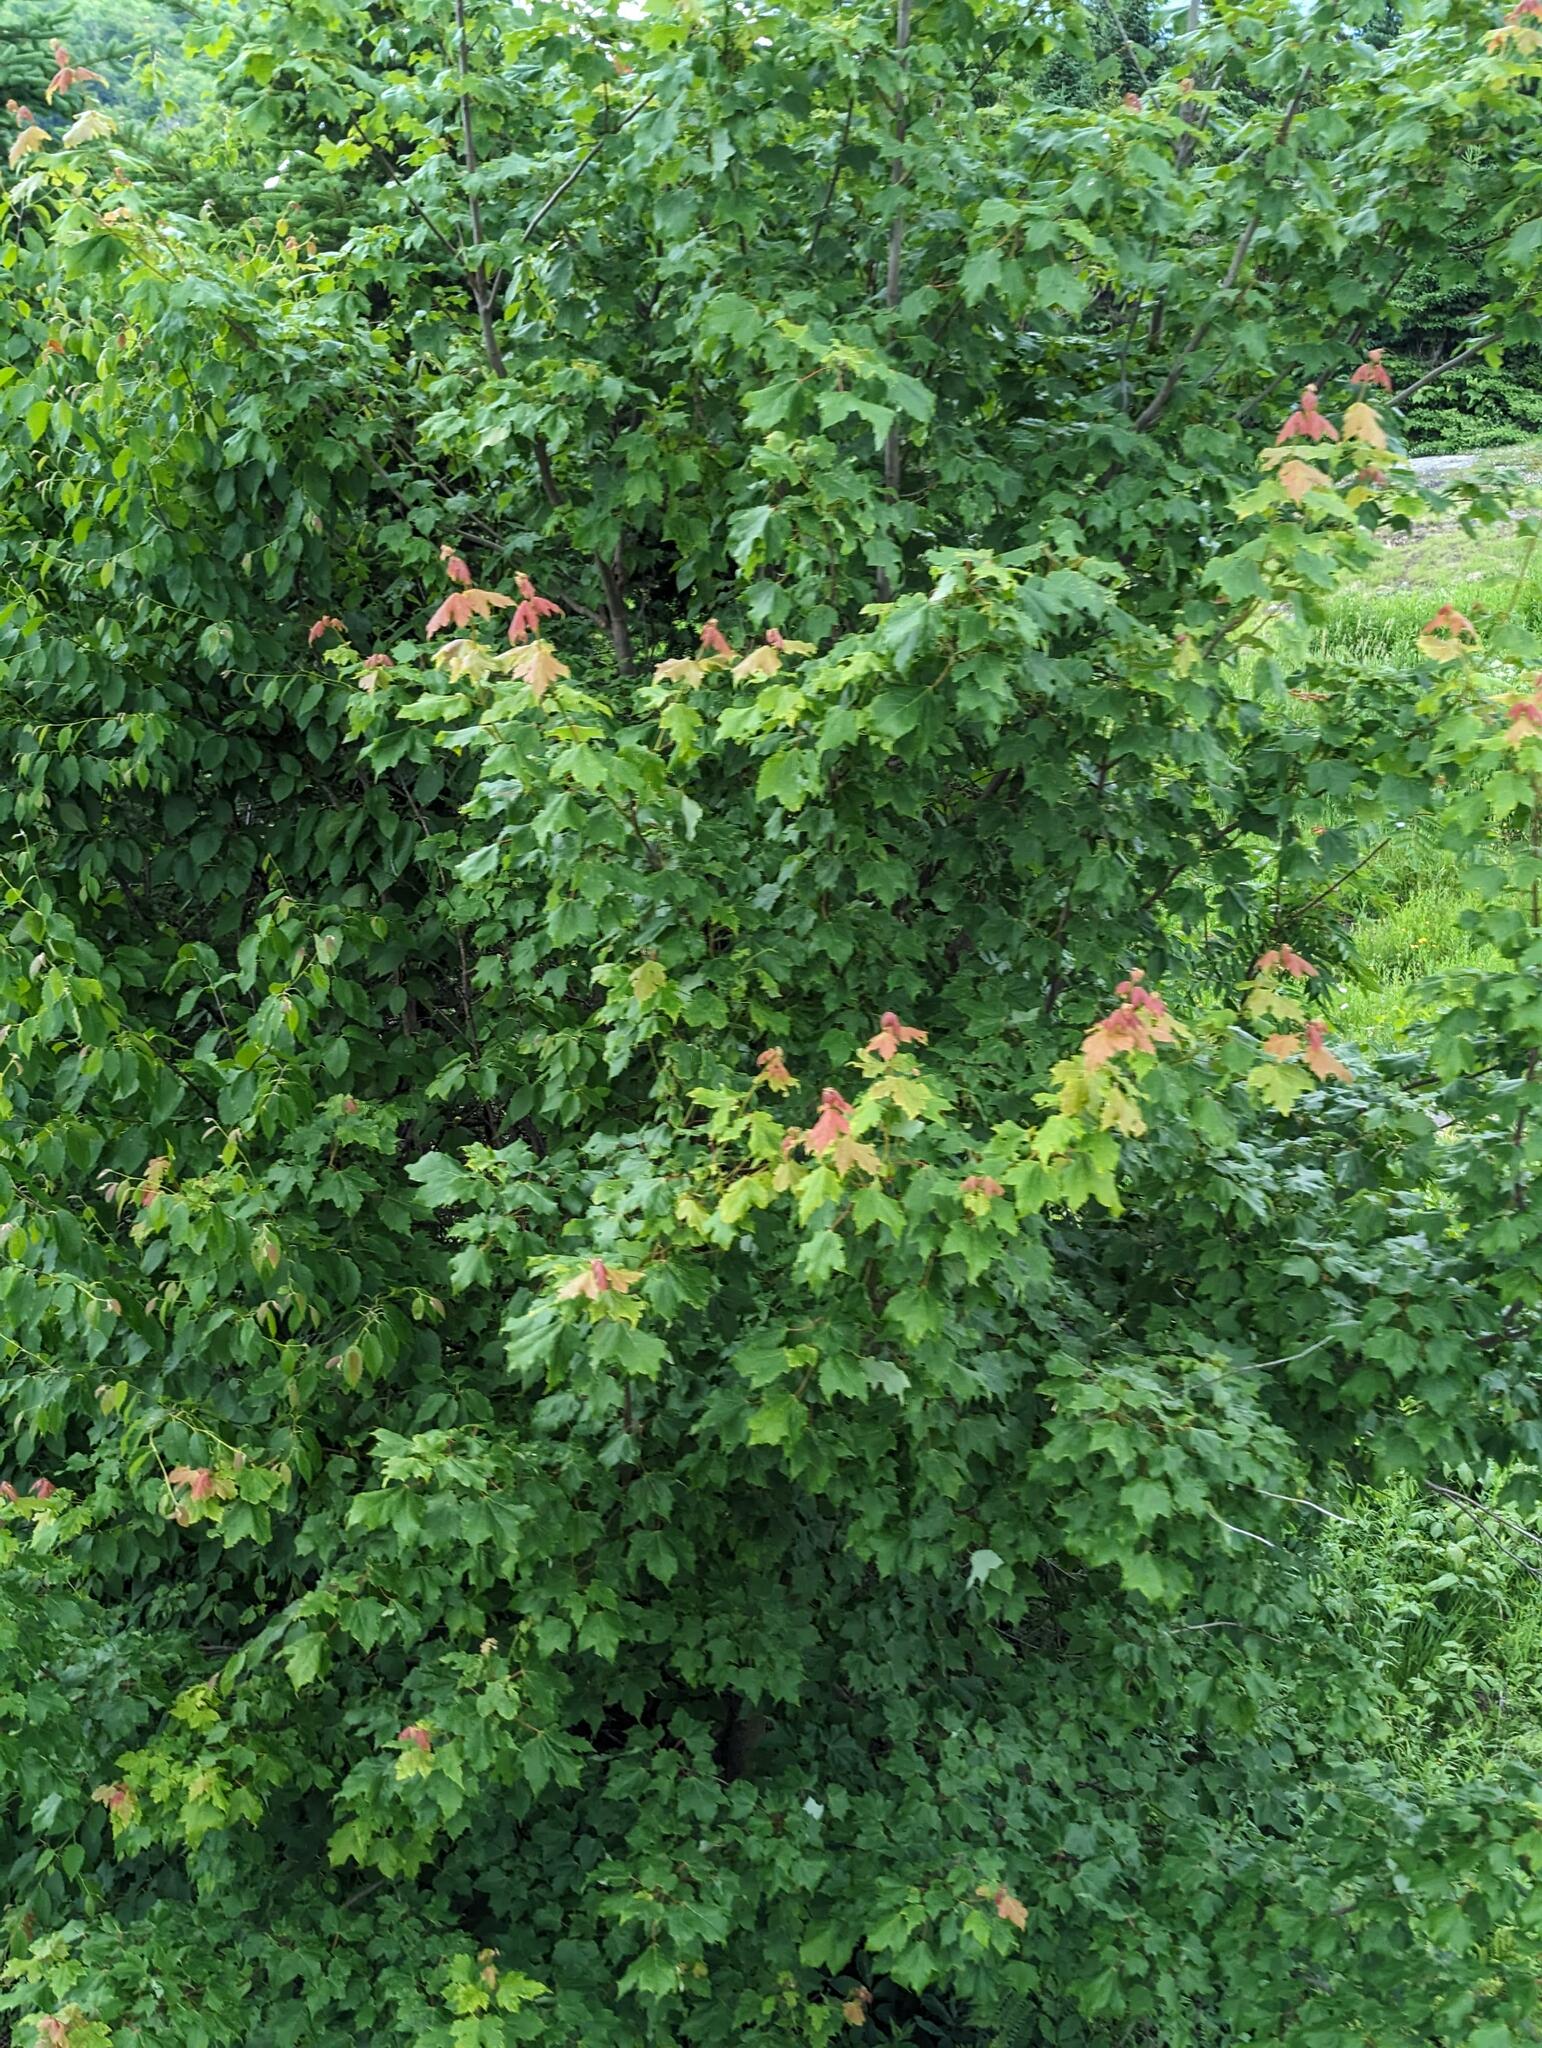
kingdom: Plantae
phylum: Tracheophyta
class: Magnoliopsida
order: Sapindales
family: Sapindaceae
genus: Acer
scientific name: Acer rubrum
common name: Red maple
